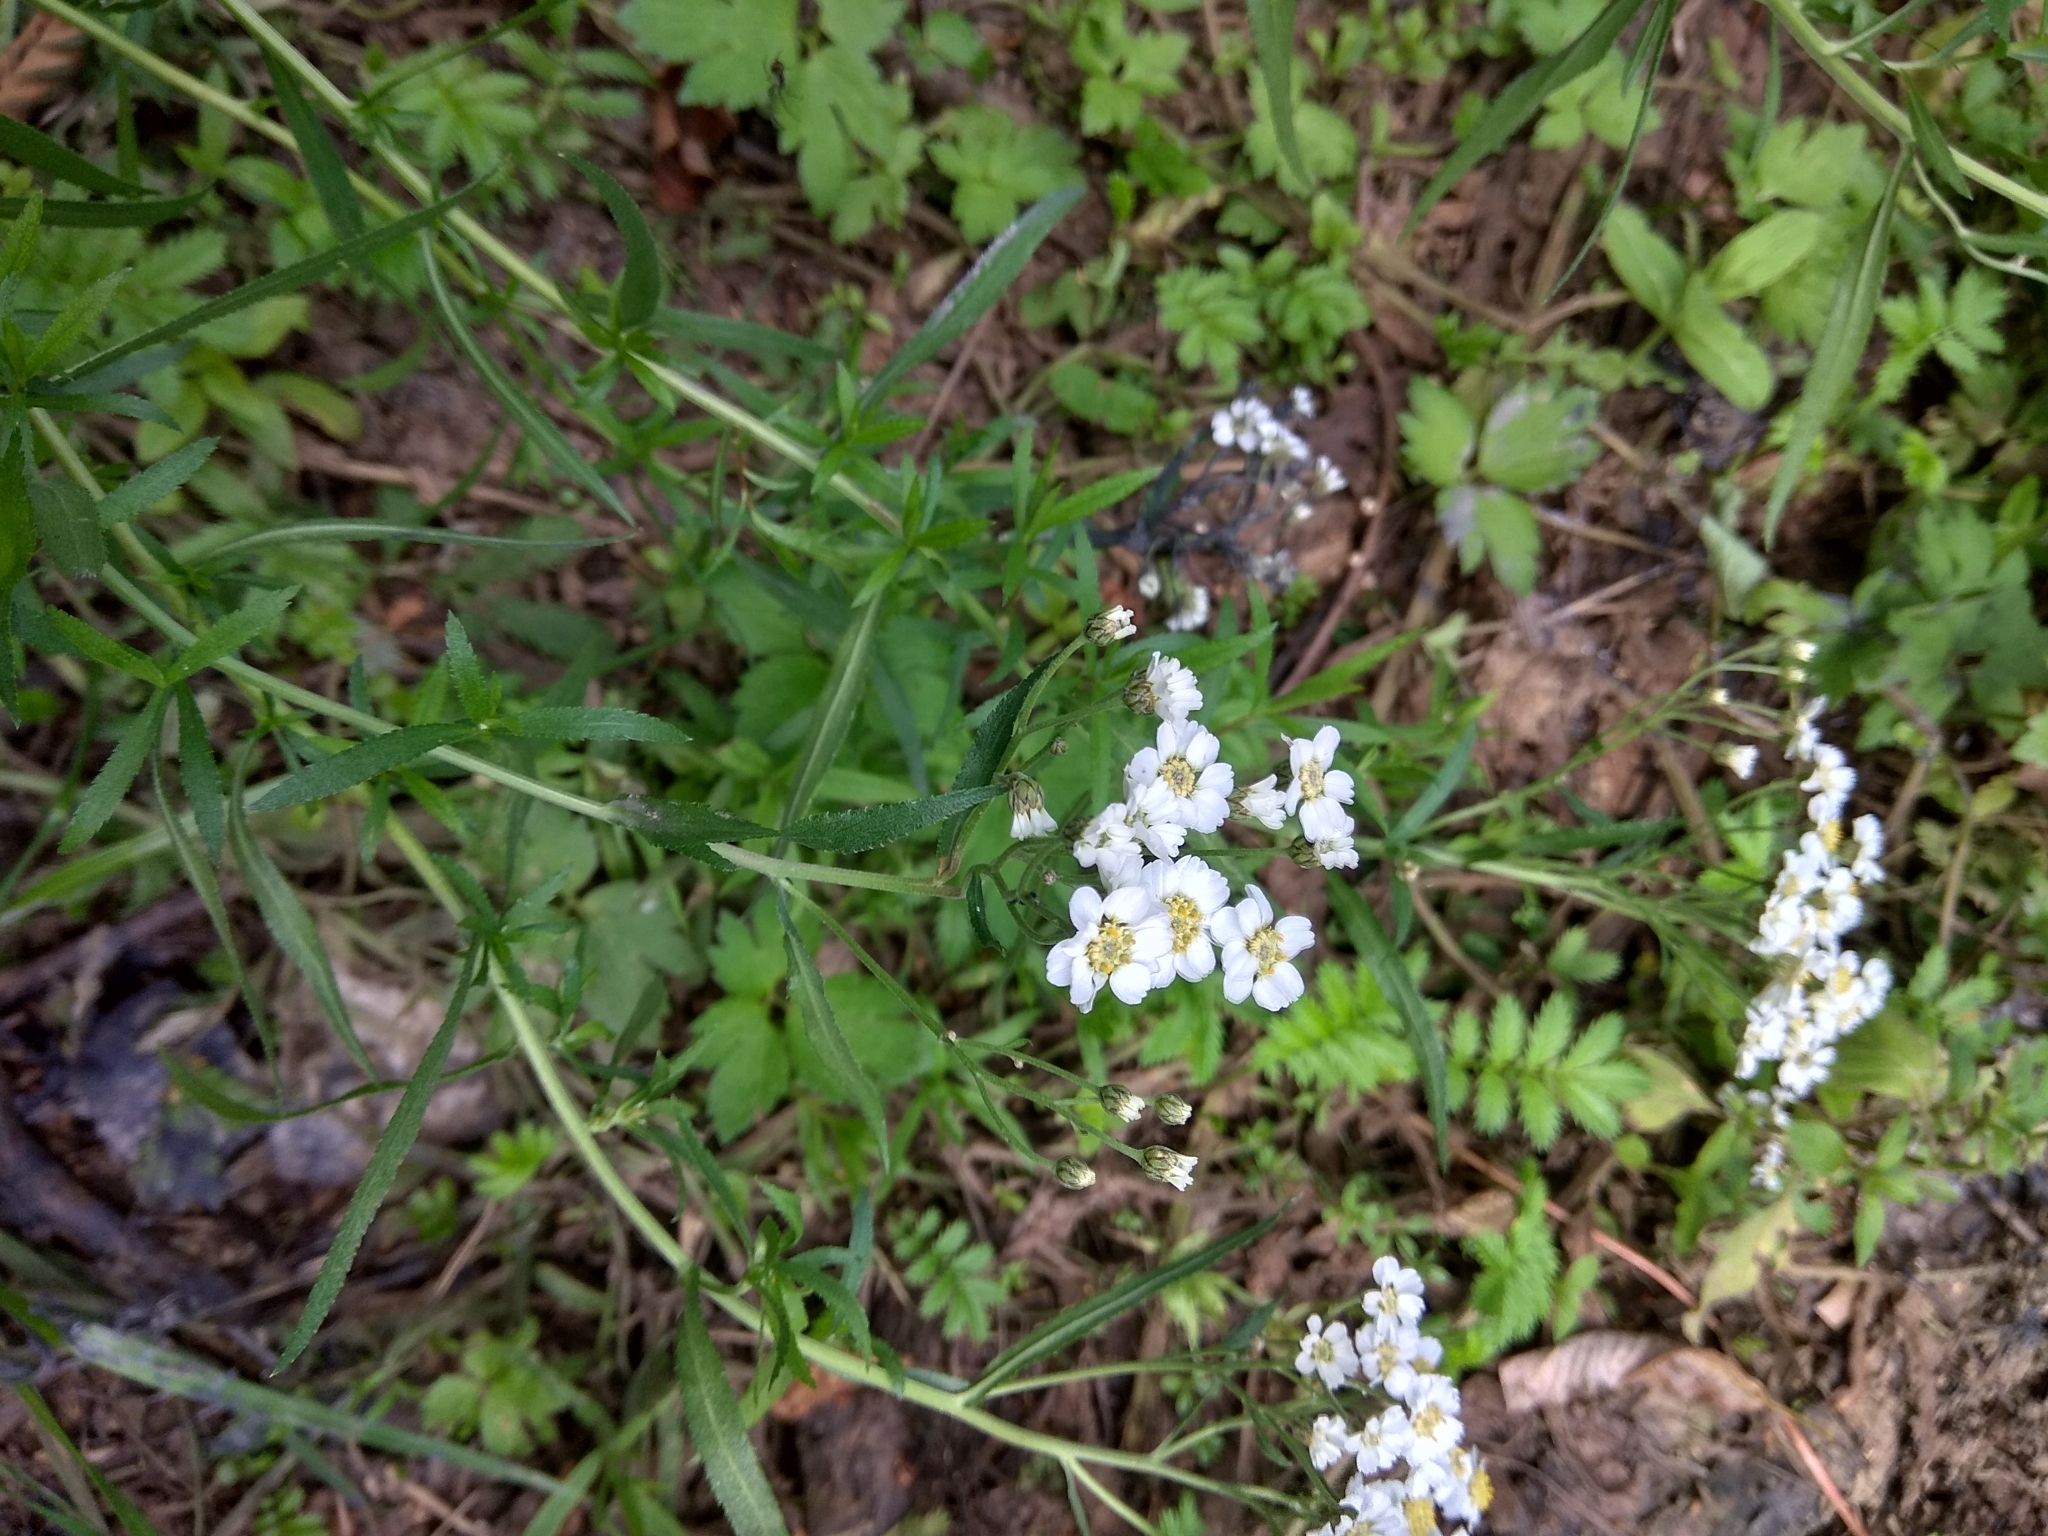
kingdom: Plantae
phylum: Tracheophyta
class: Magnoliopsida
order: Asterales
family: Asteraceae
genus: Achillea
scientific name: Achillea ptarmica
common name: Sneezeweed
